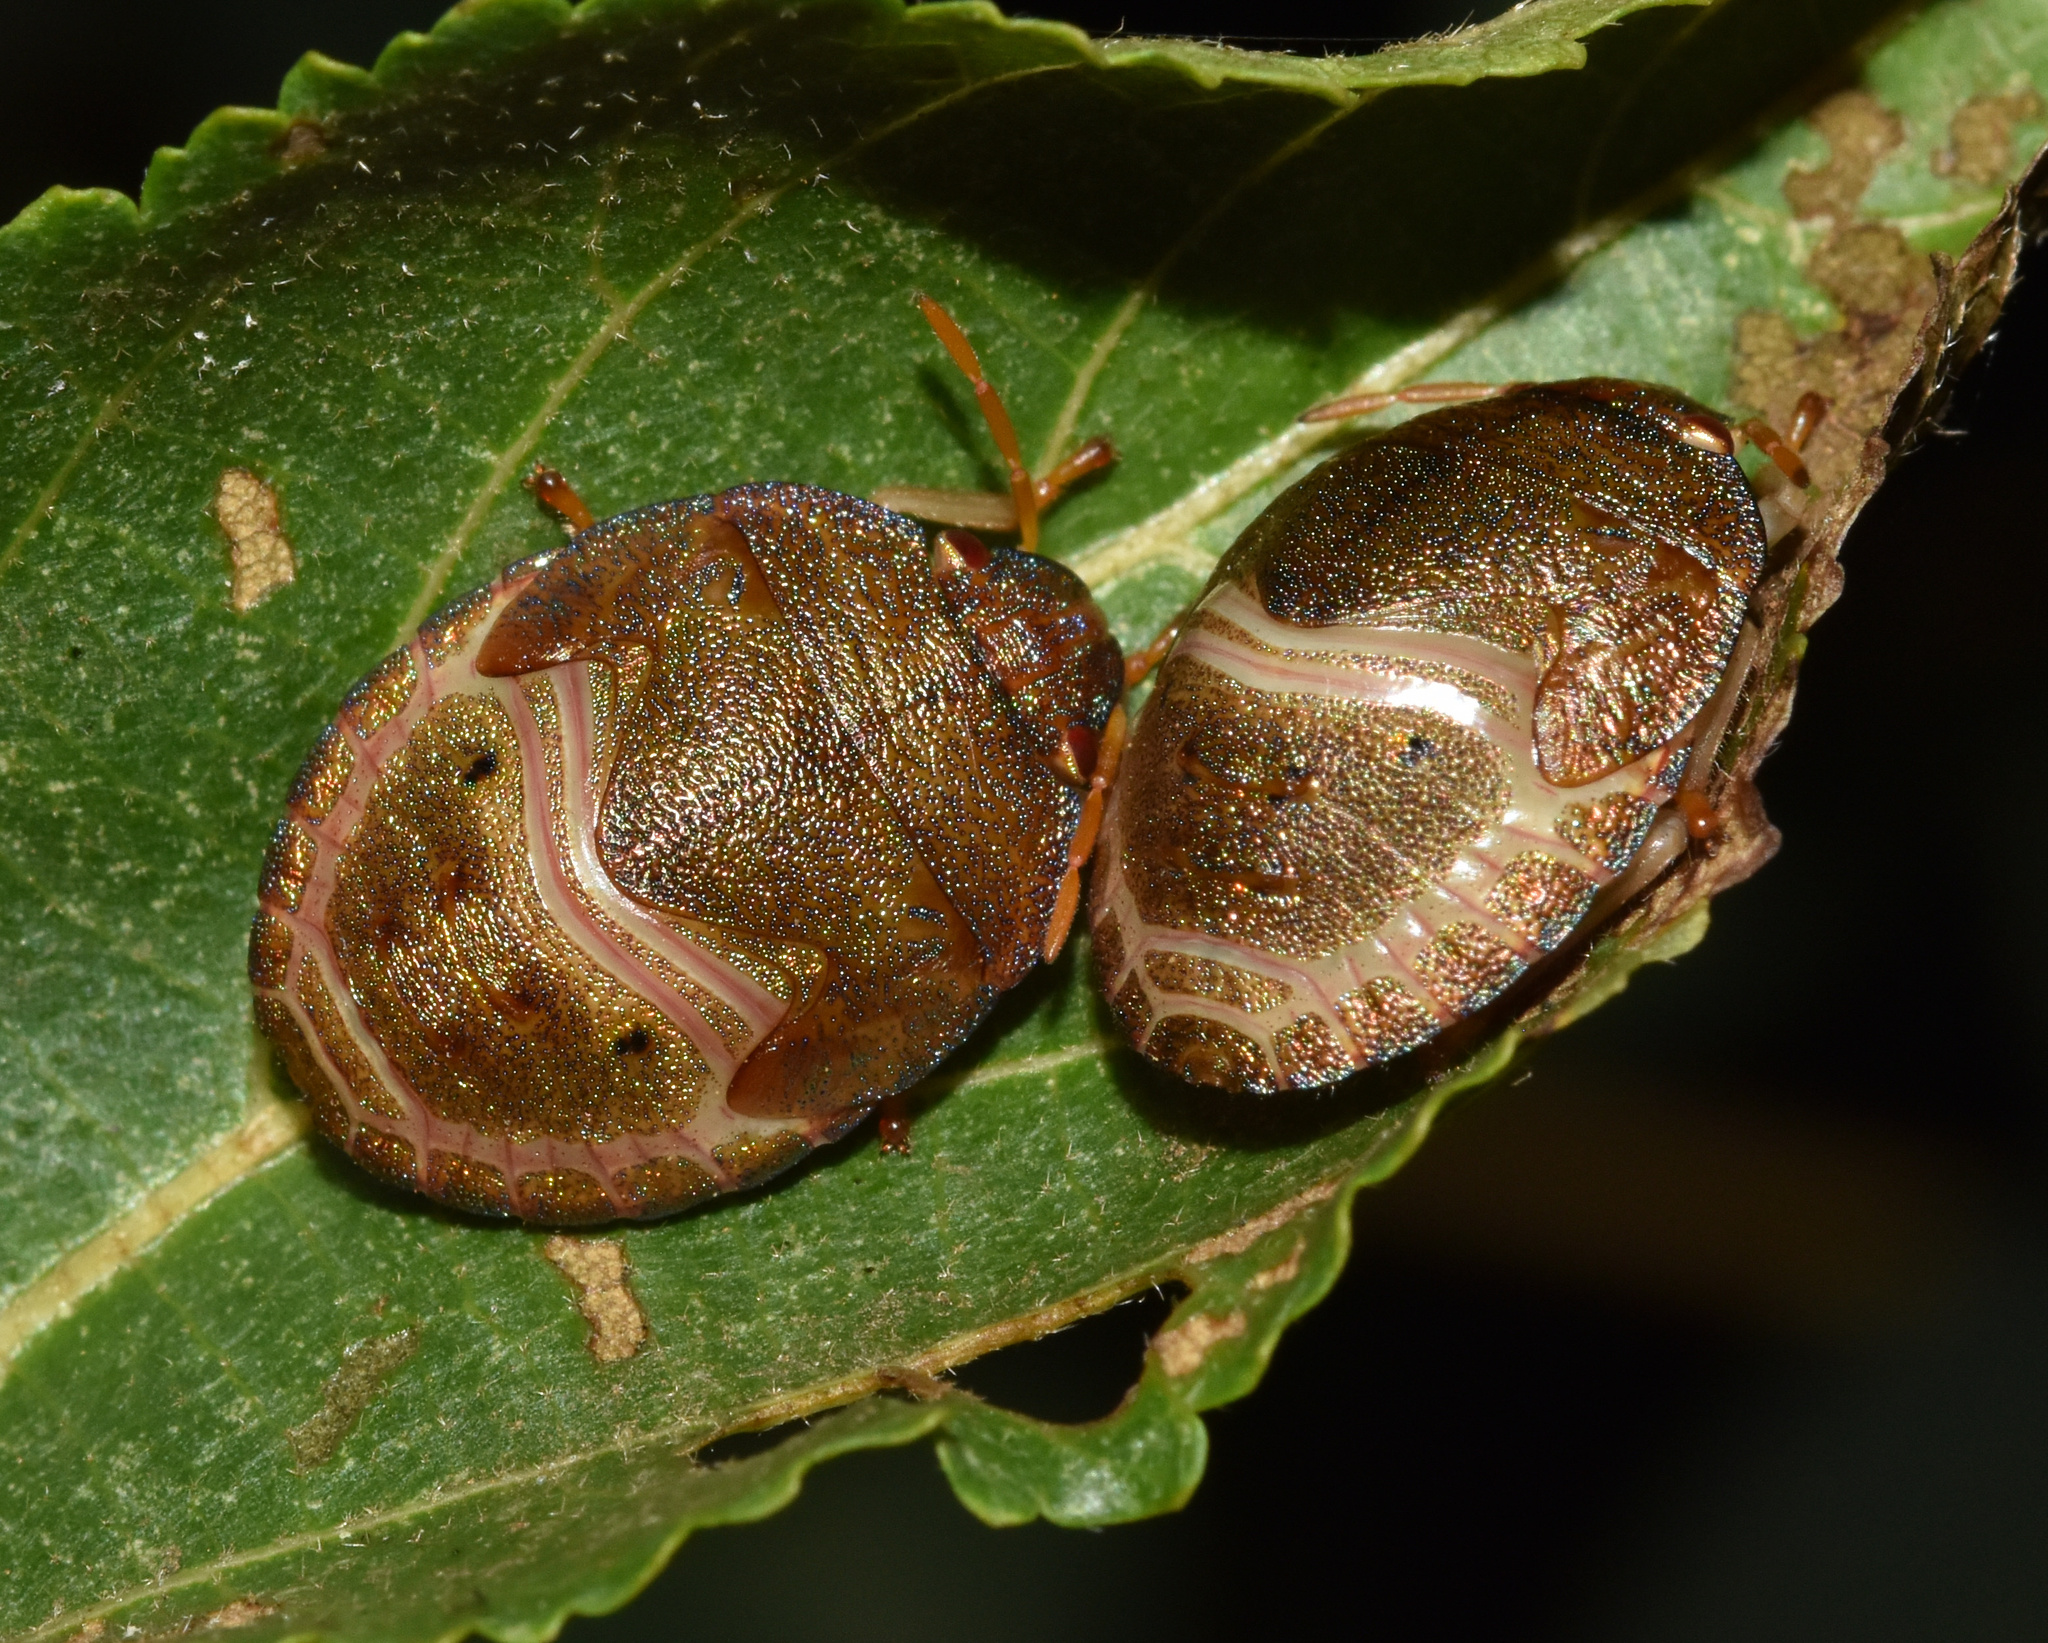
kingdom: Animalia
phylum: Arthropoda
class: Insecta
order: Hemiptera
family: Scutelleridae
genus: Solenosthedium
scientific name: Solenosthedium
